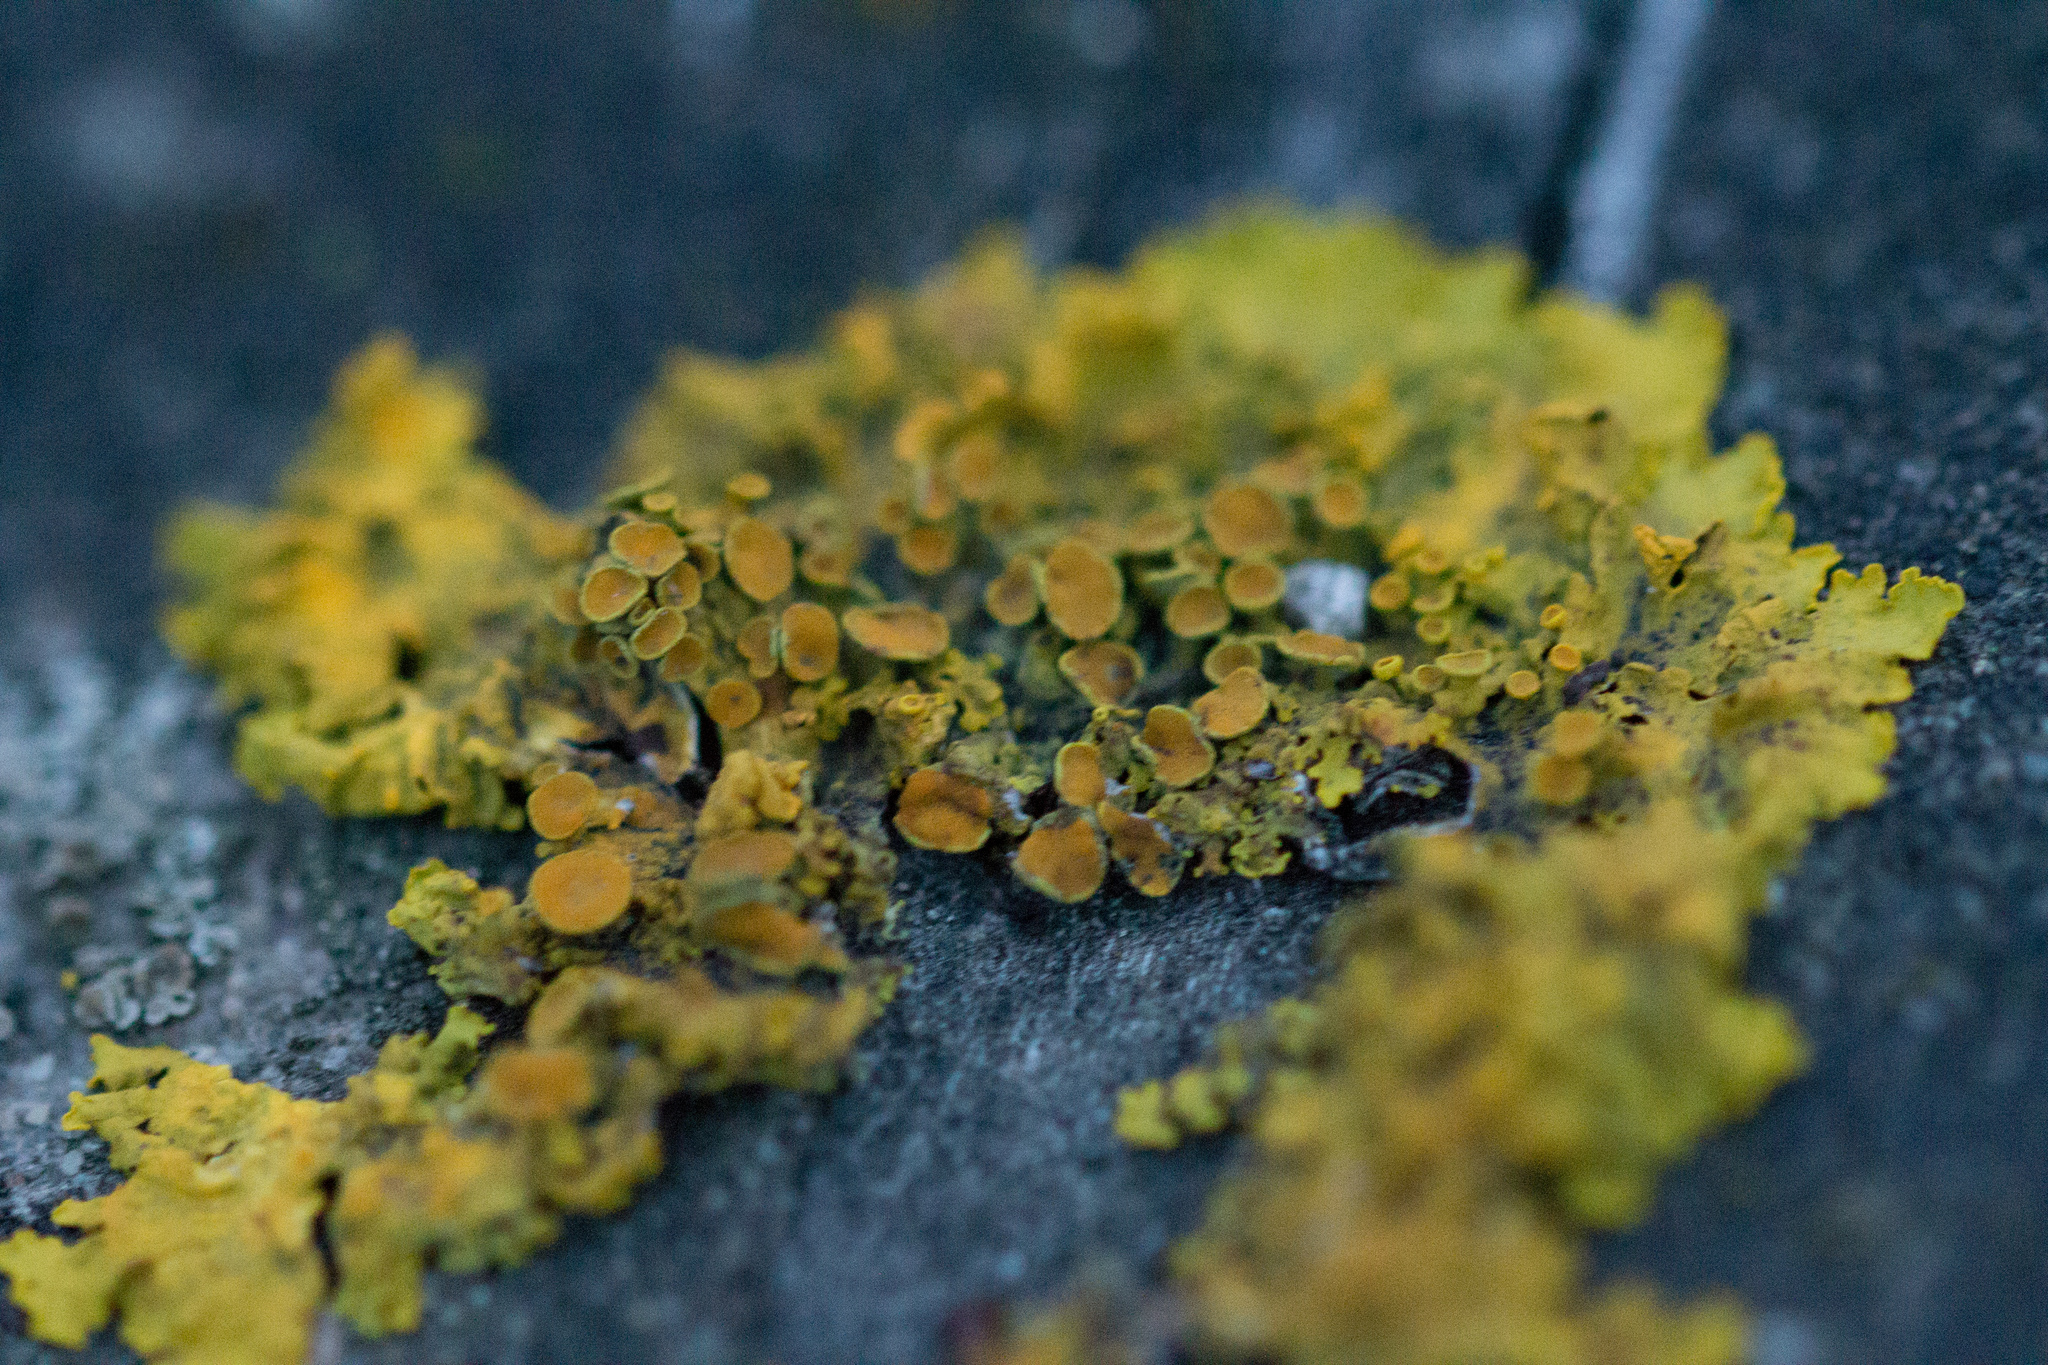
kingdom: Fungi
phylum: Ascomycota
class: Lecanoromycetes
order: Teloschistales
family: Teloschistaceae
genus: Xanthoria
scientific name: Xanthoria parietina
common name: Common orange lichen
